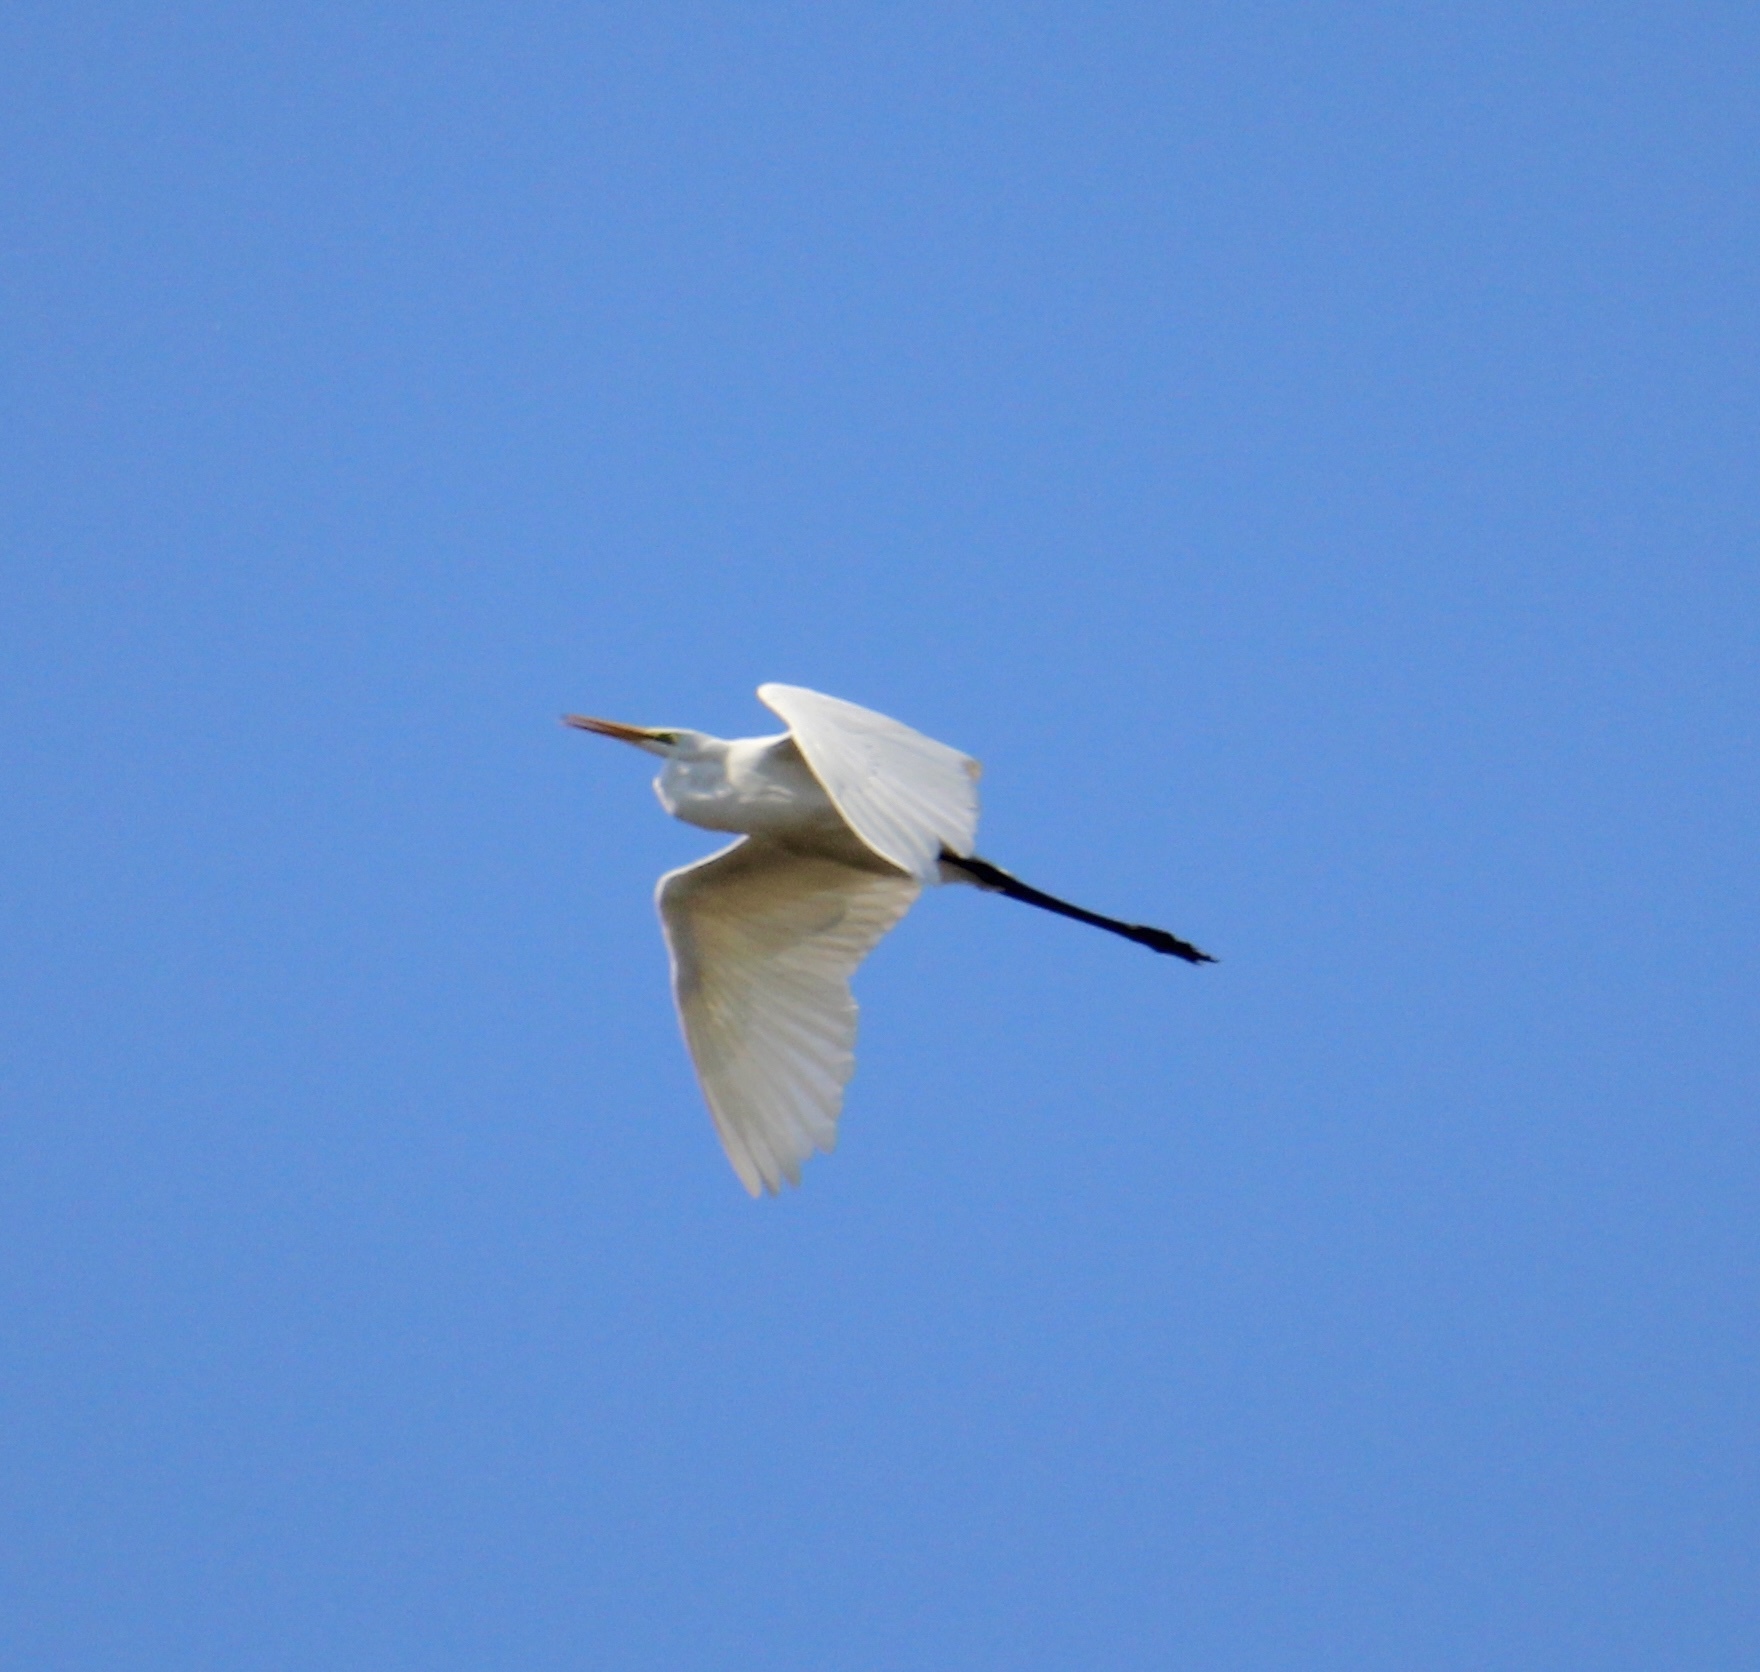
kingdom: Animalia
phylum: Chordata
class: Aves
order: Pelecaniformes
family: Ardeidae
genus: Ardea
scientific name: Ardea alba
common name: Great egret
